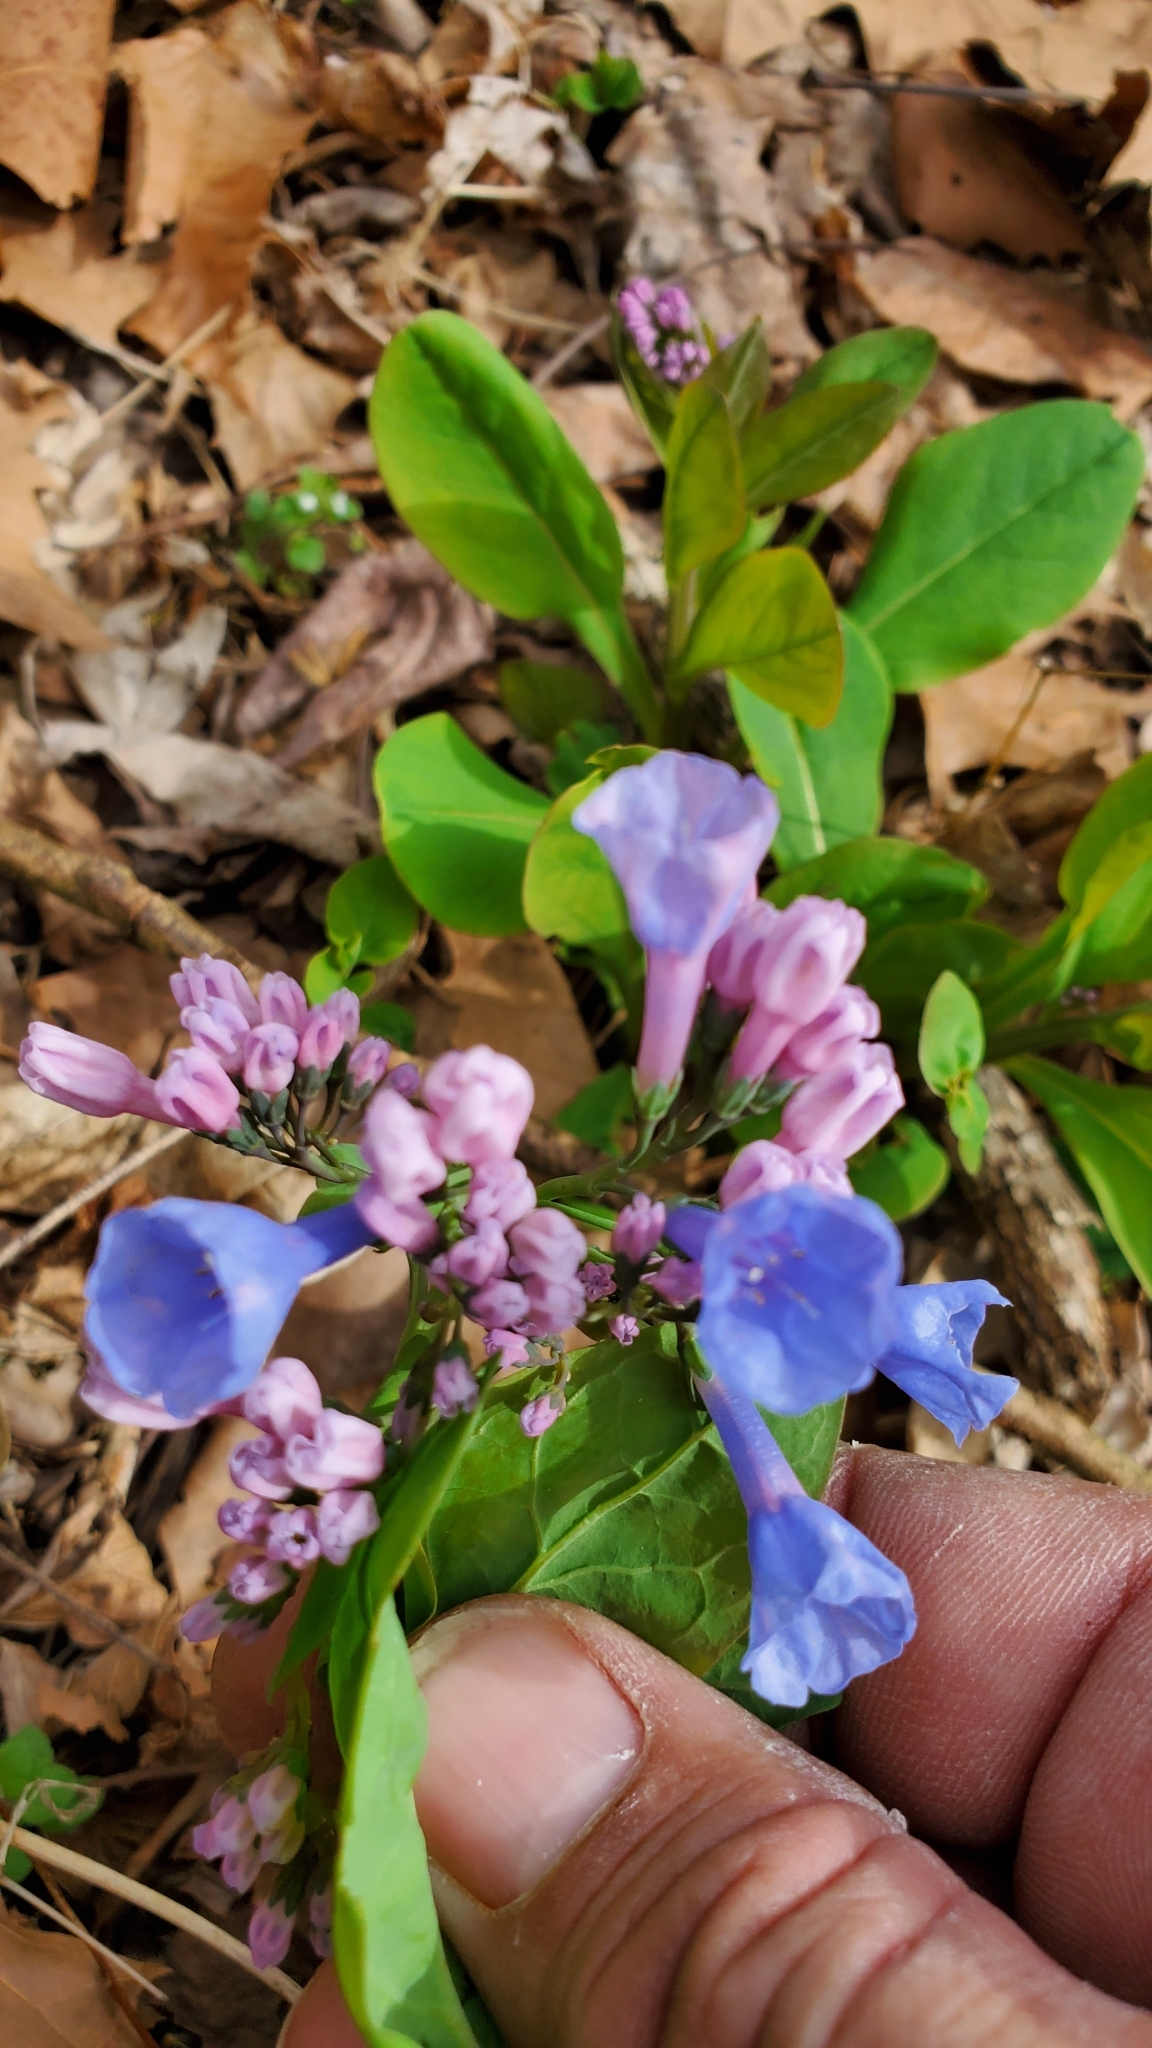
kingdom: Plantae
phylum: Tracheophyta
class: Magnoliopsida
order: Boraginales
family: Boraginaceae
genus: Mertensia
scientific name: Mertensia virginica
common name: Virginia bluebells
